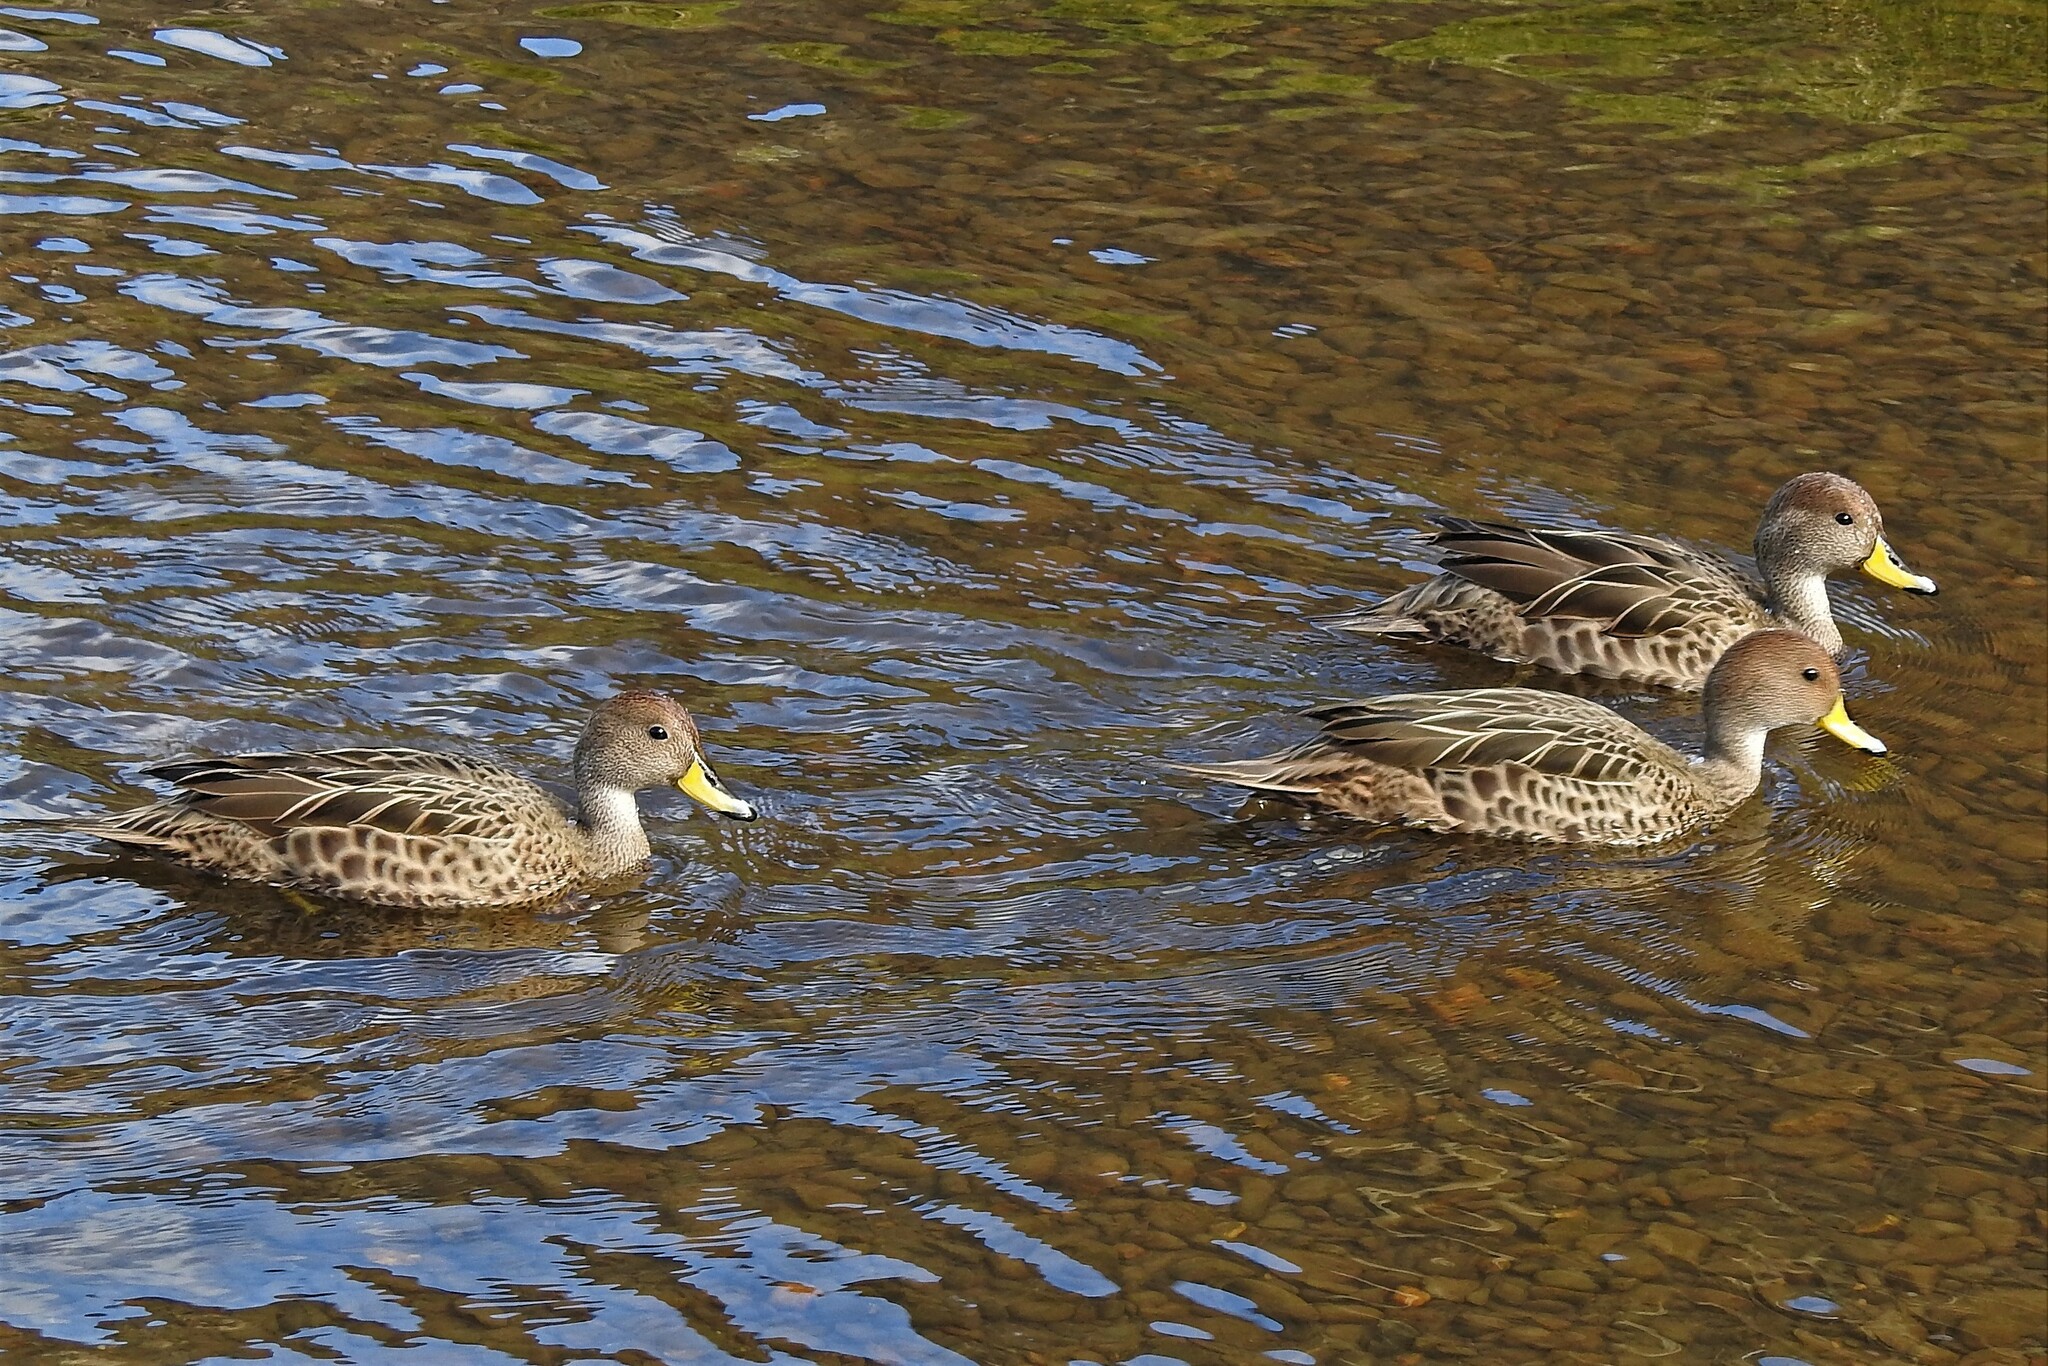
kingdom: Animalia
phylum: Chordata
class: Aves
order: Anseriformes
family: Anatidae
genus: Anas
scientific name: Anas georgica
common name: Yellow-billed pintail
